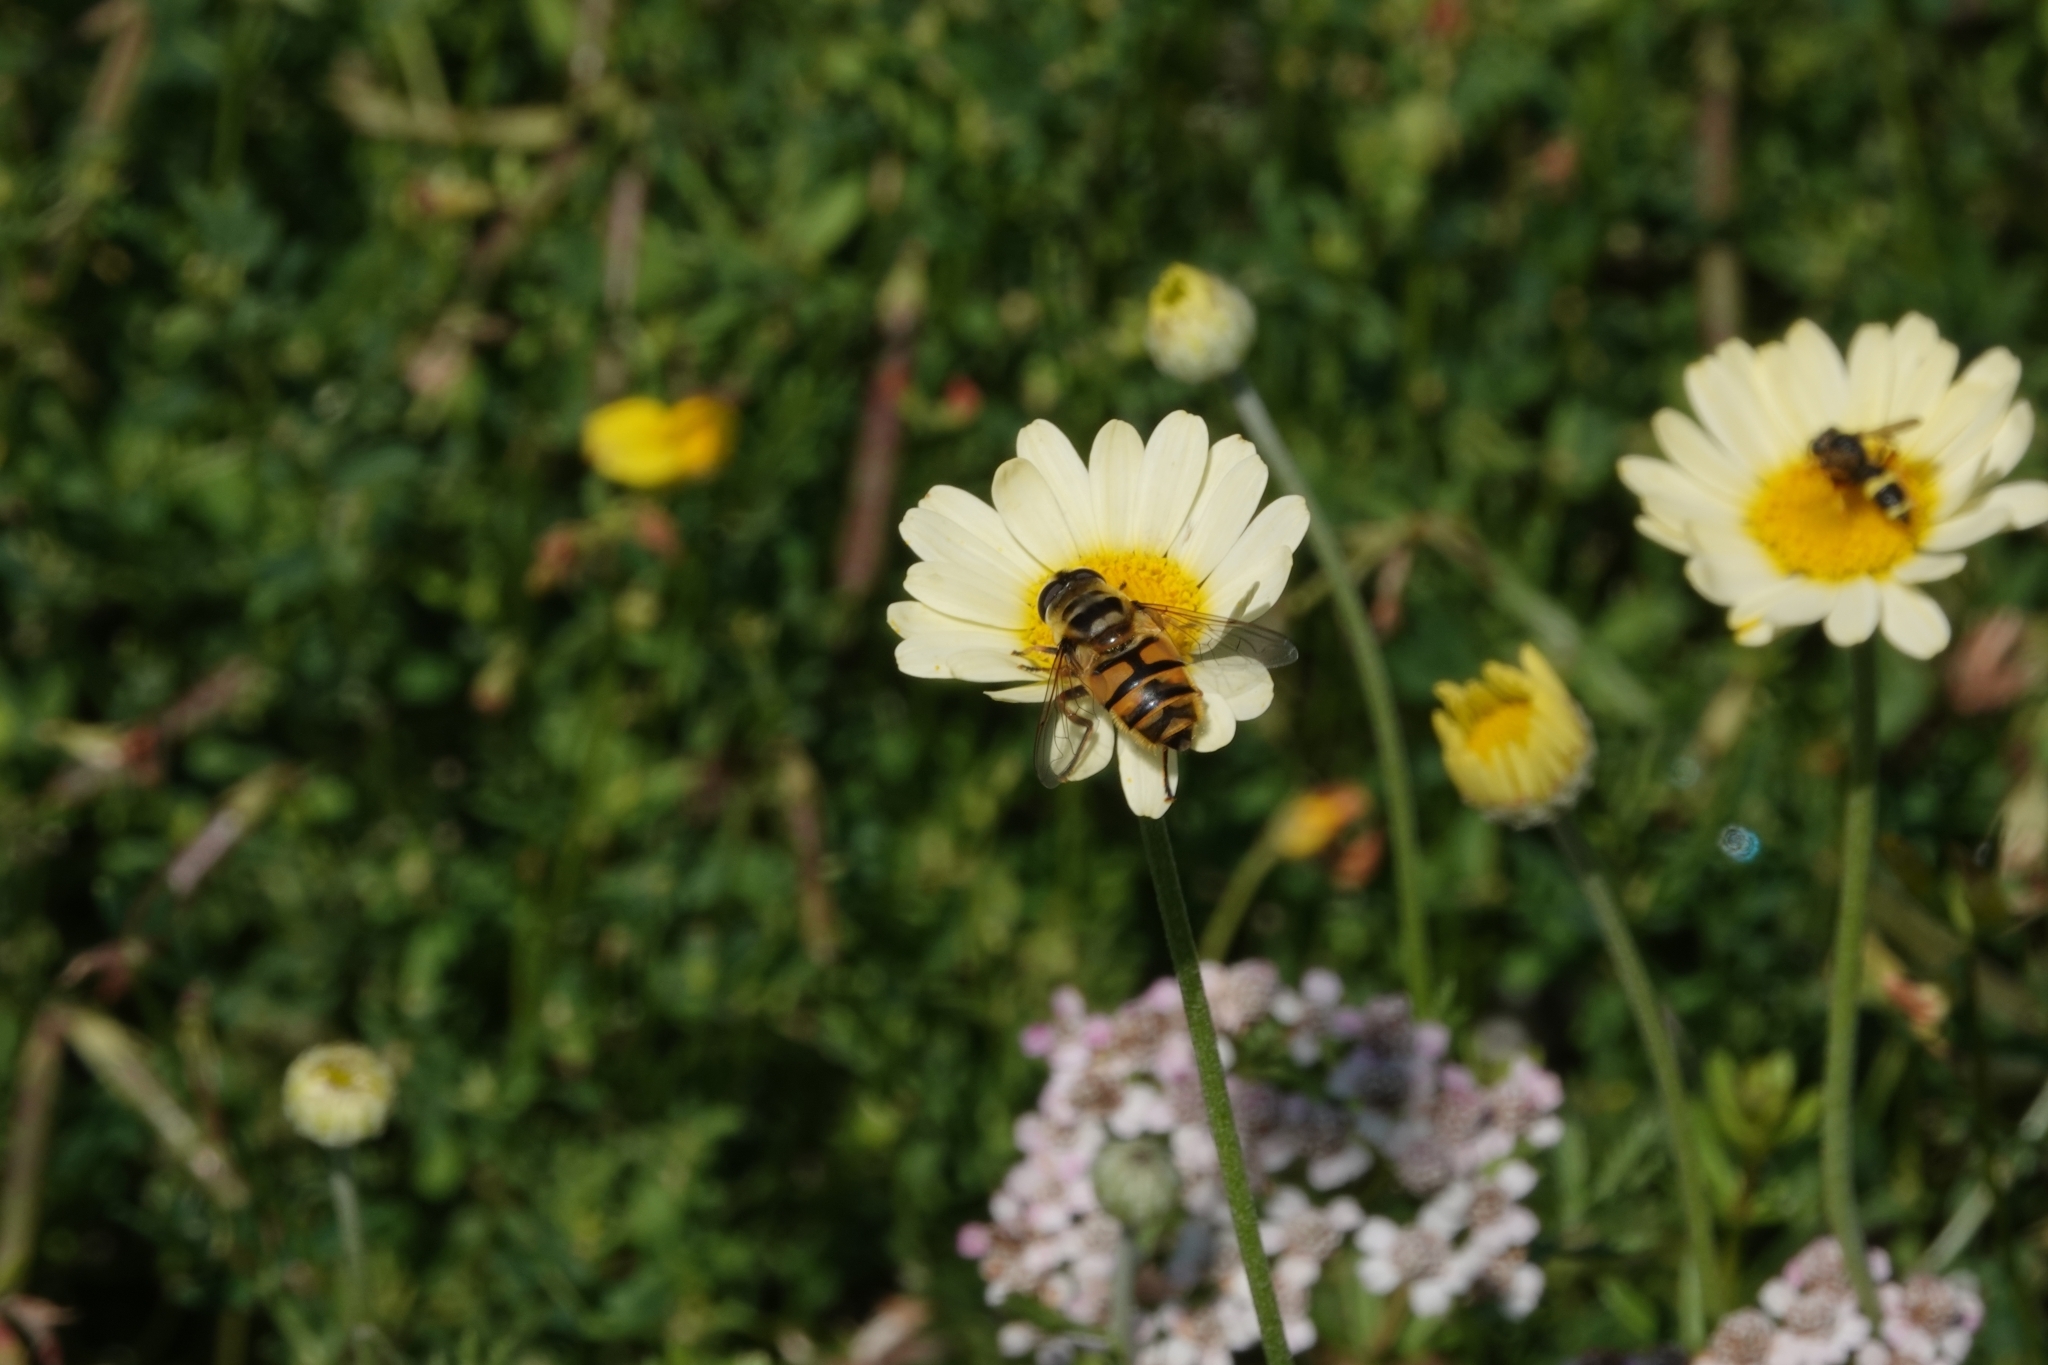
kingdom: Animalia
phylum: Arthropoda
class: Insecta
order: Diptera
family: Syrphidae
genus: Myathropa
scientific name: Myathropa florea
